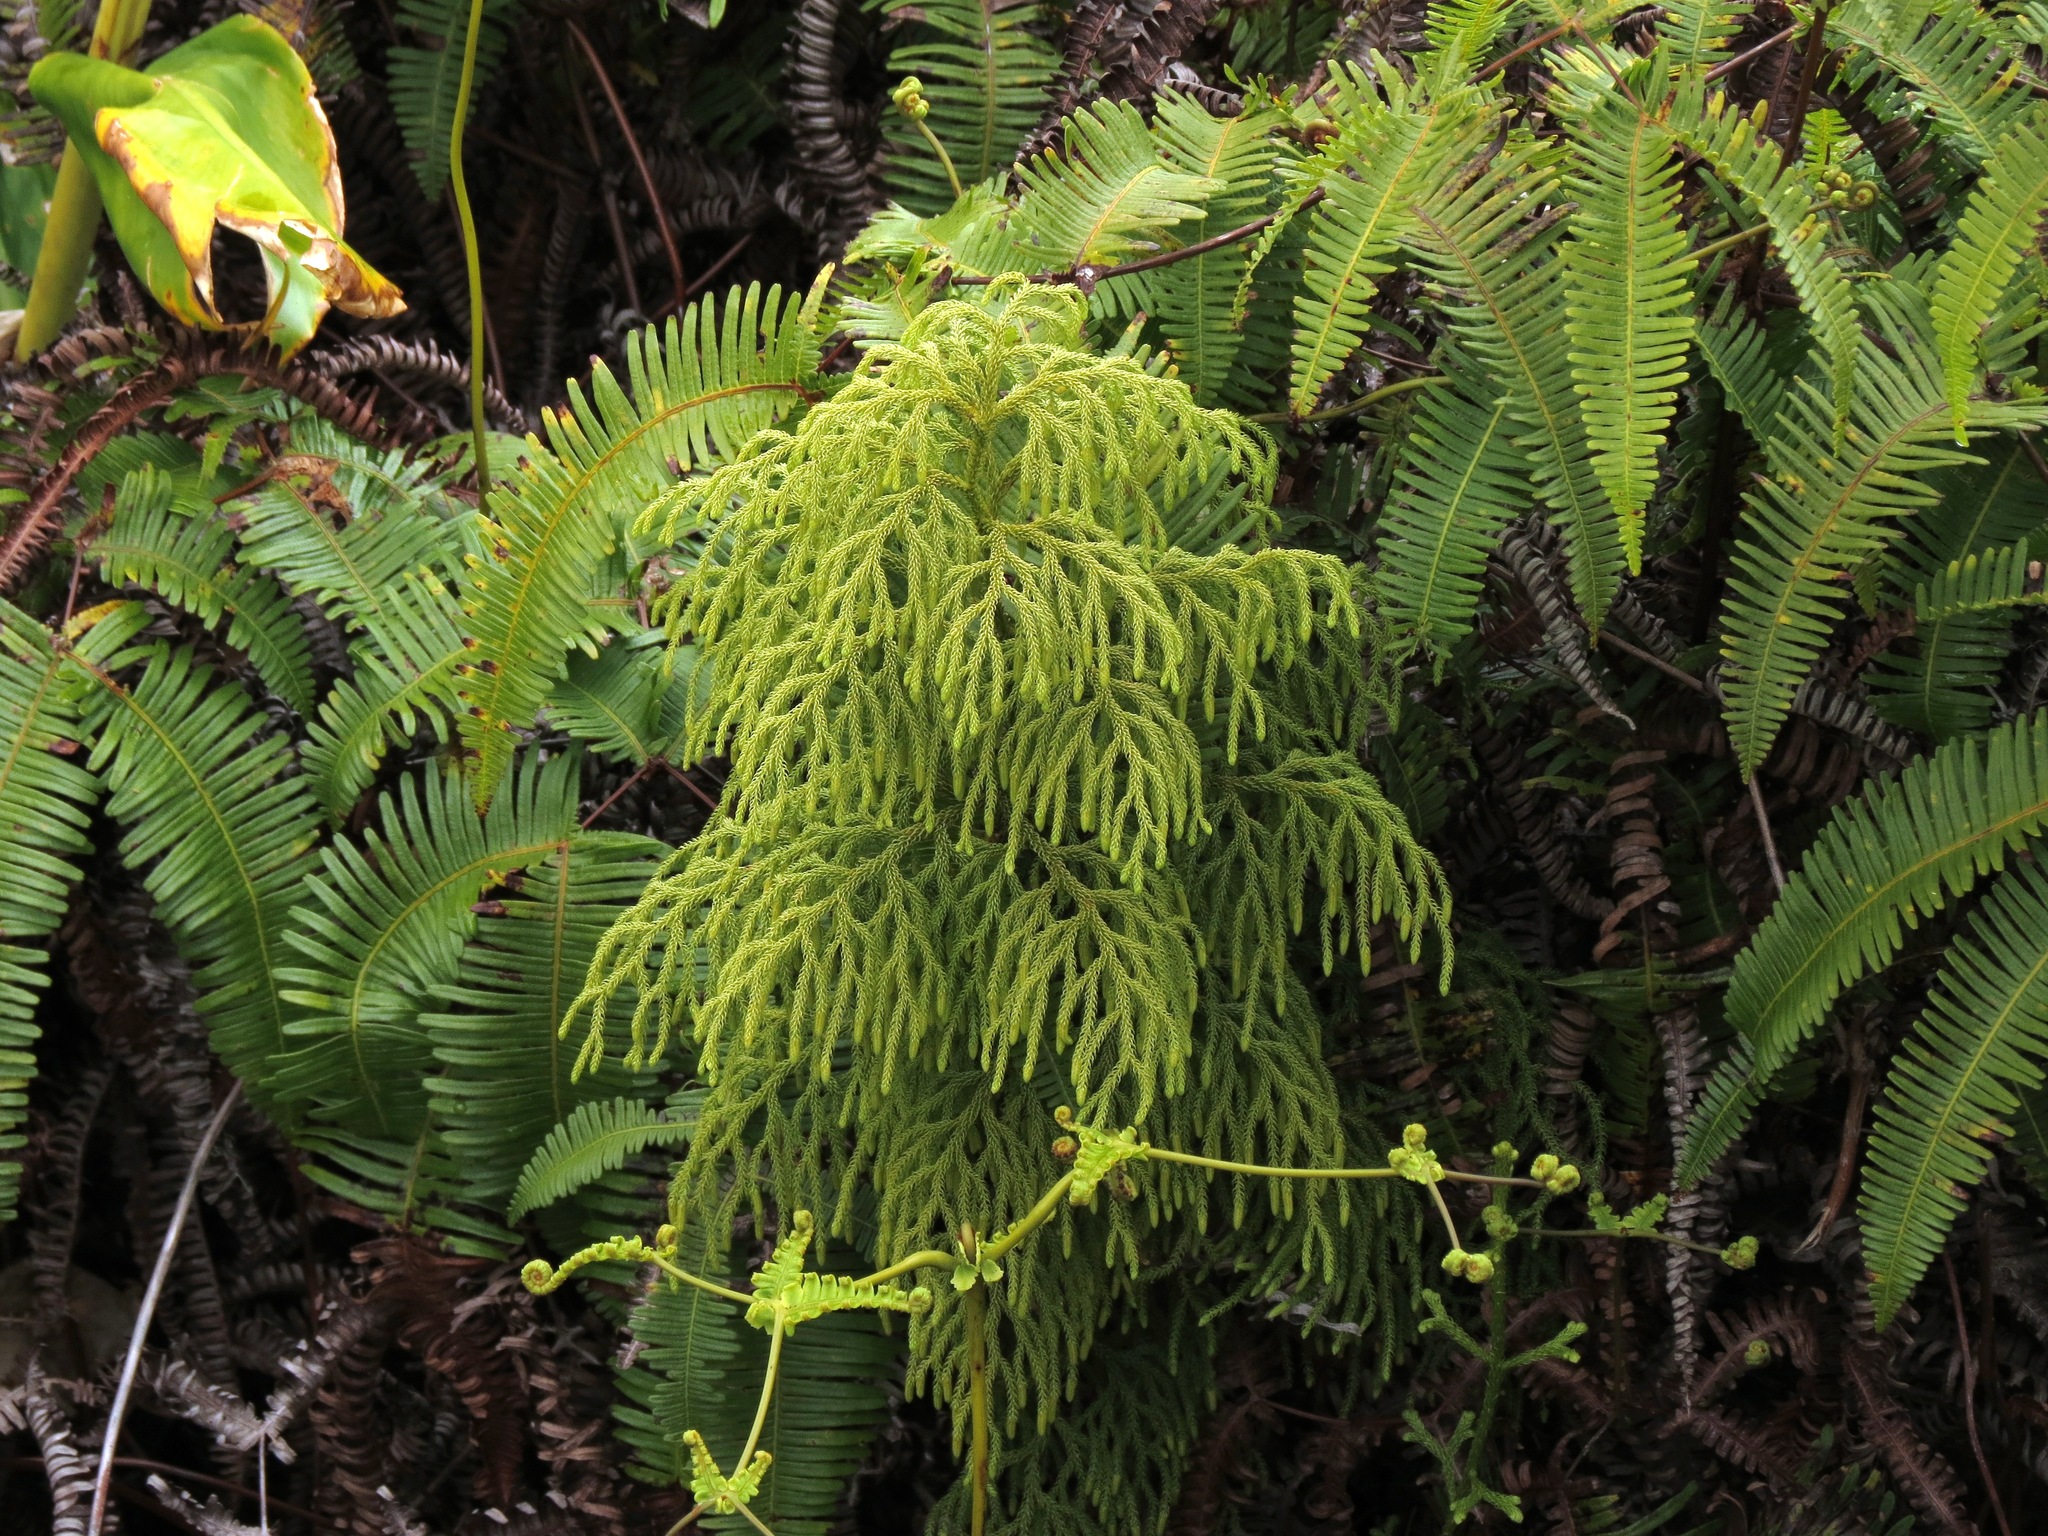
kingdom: Plantae
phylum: Tracheophyta
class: Lycopodiopsida
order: Lycopodiales
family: Lycopodiaceae
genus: Palhinhaea
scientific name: Palhinhaea cernua
